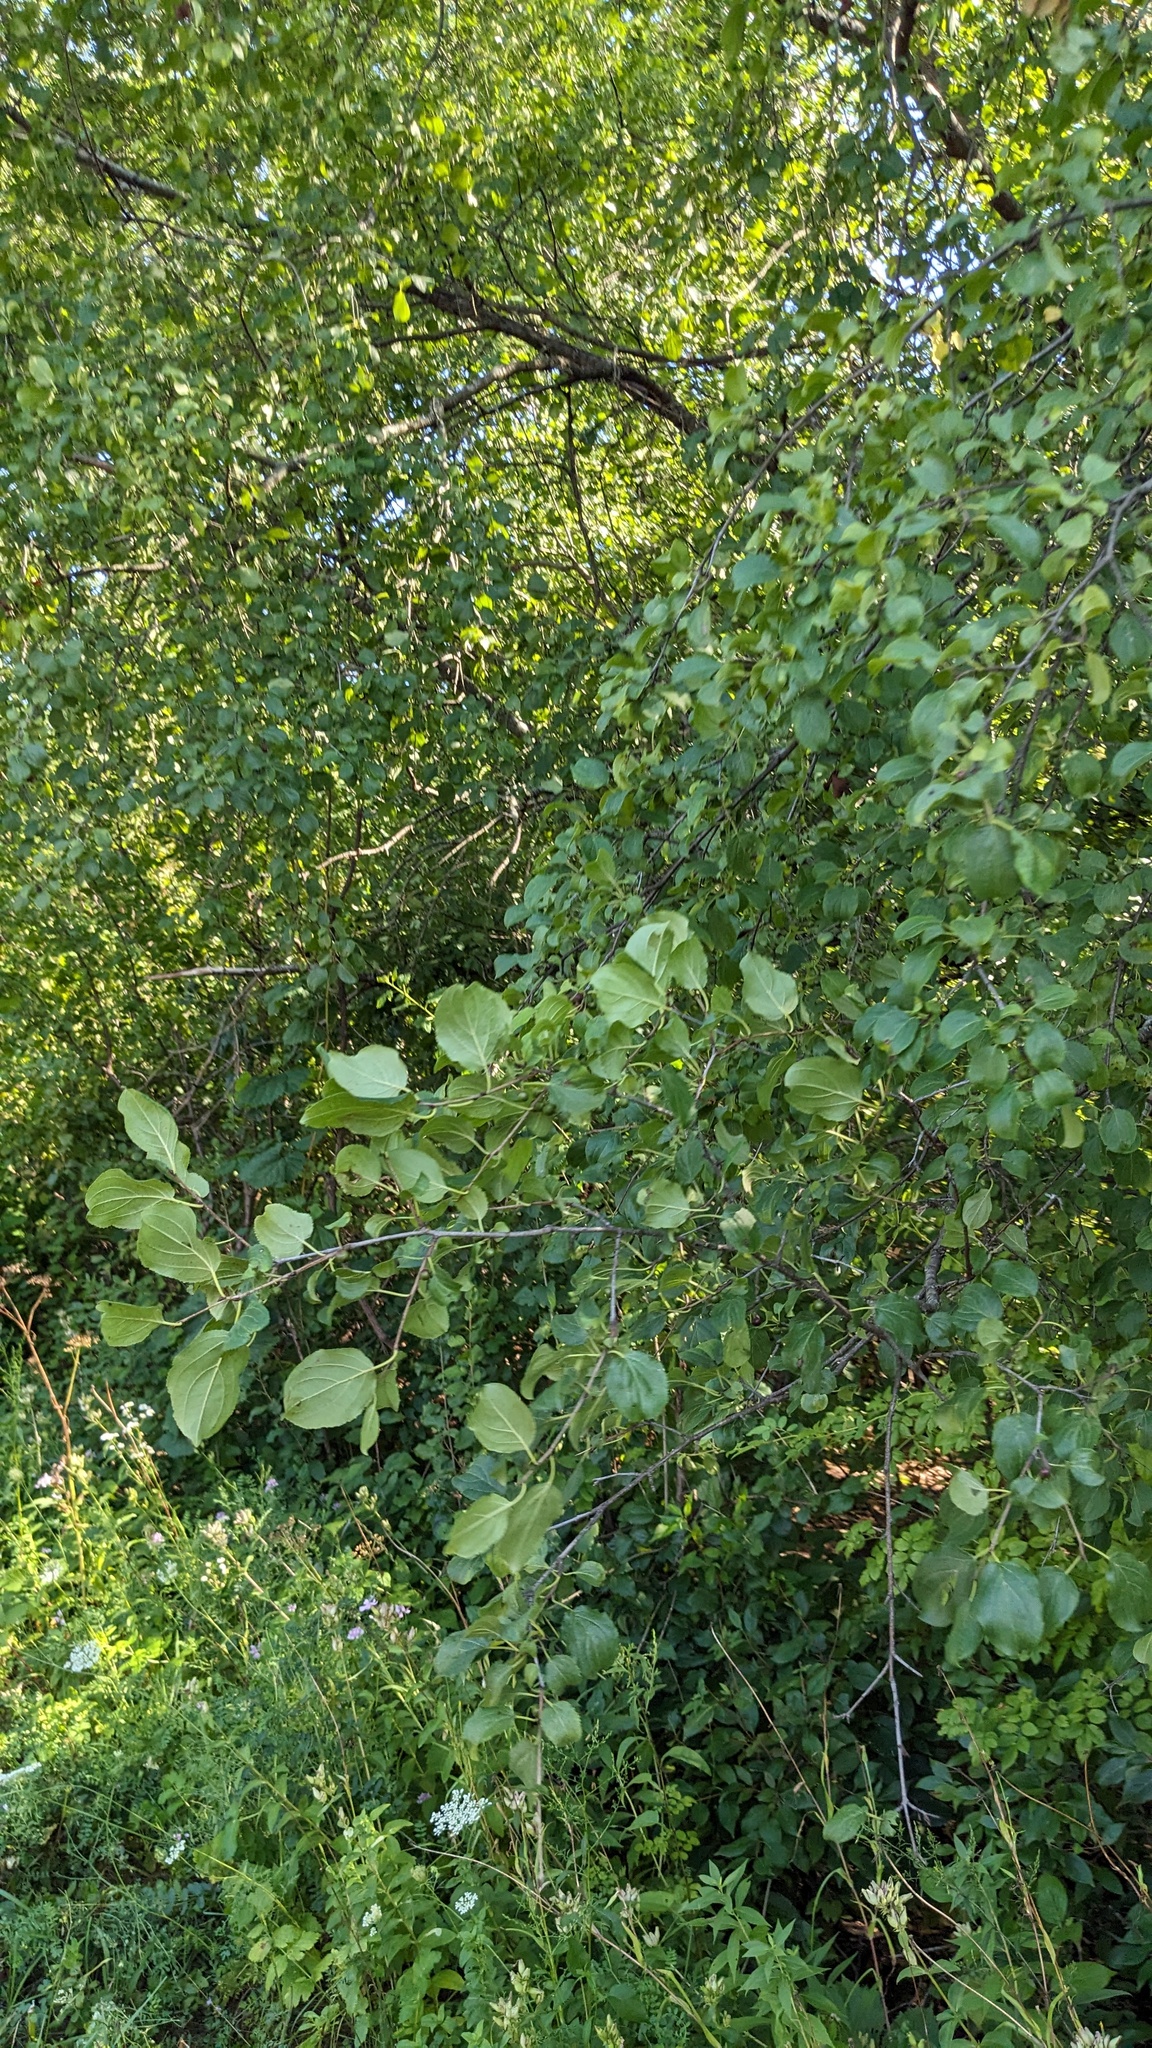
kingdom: Plantae
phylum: Tracheophyta
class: Magnoliopsida
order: Rosales
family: Rhamnaceae
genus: Rhamnus
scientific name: Rhamnus cathartica
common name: Common buckthorn
